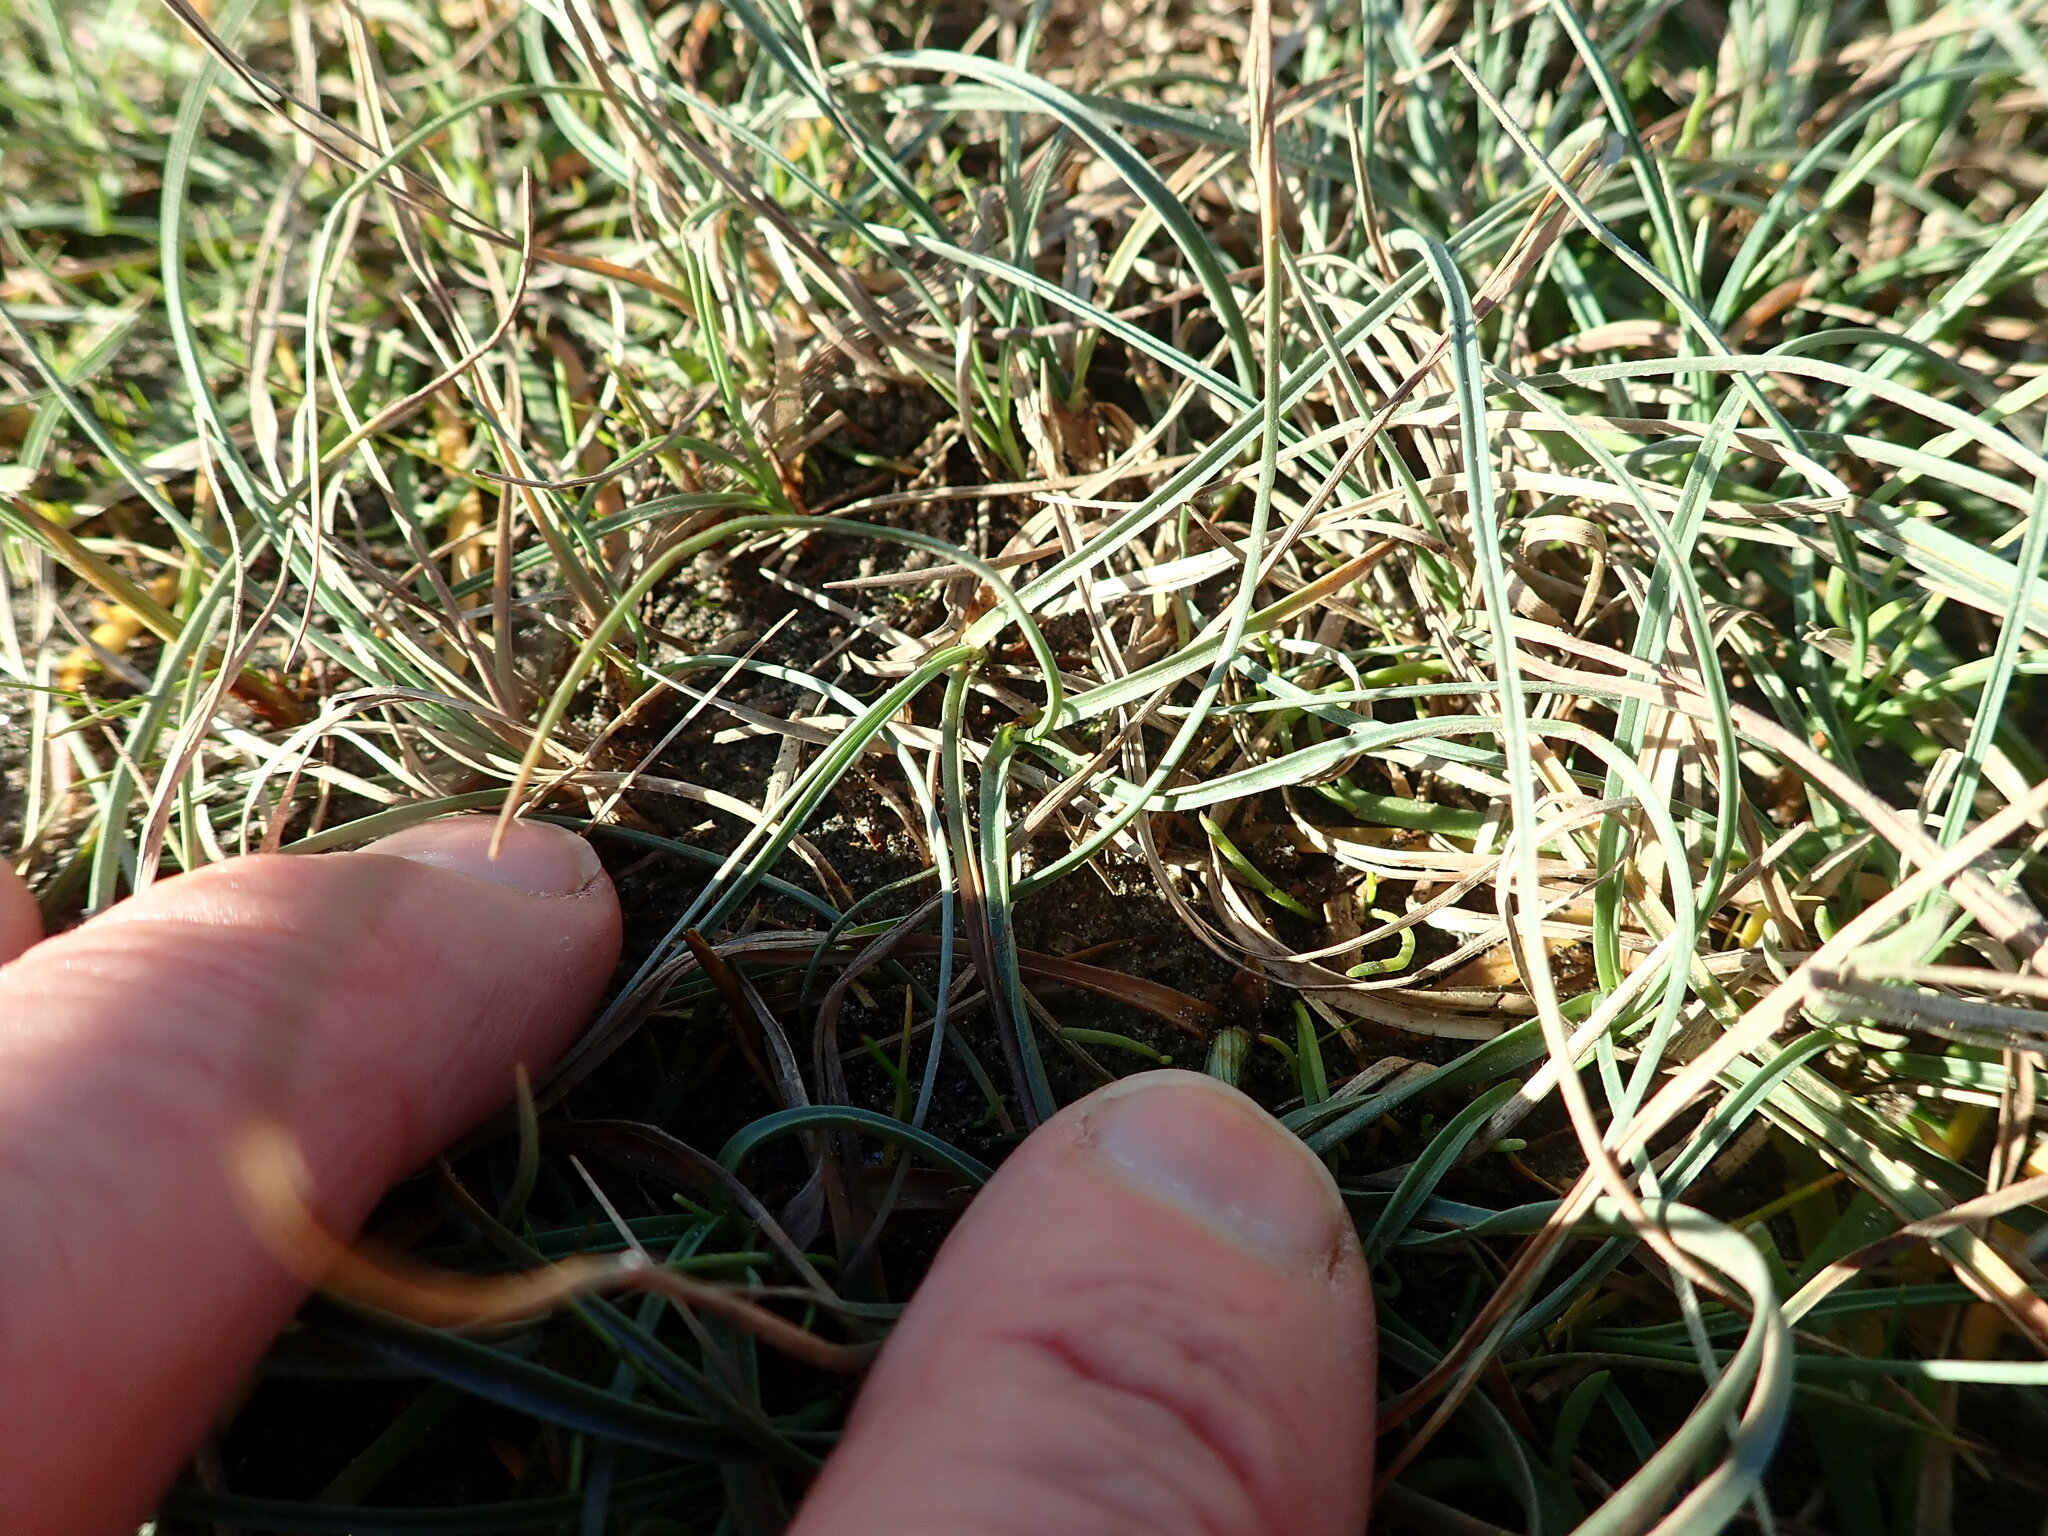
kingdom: Plantae
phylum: Tracheophyta
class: Liliopsida
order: Poales
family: Cyperaceae
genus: Carex
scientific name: Carex pumila
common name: Dwarf sedge
